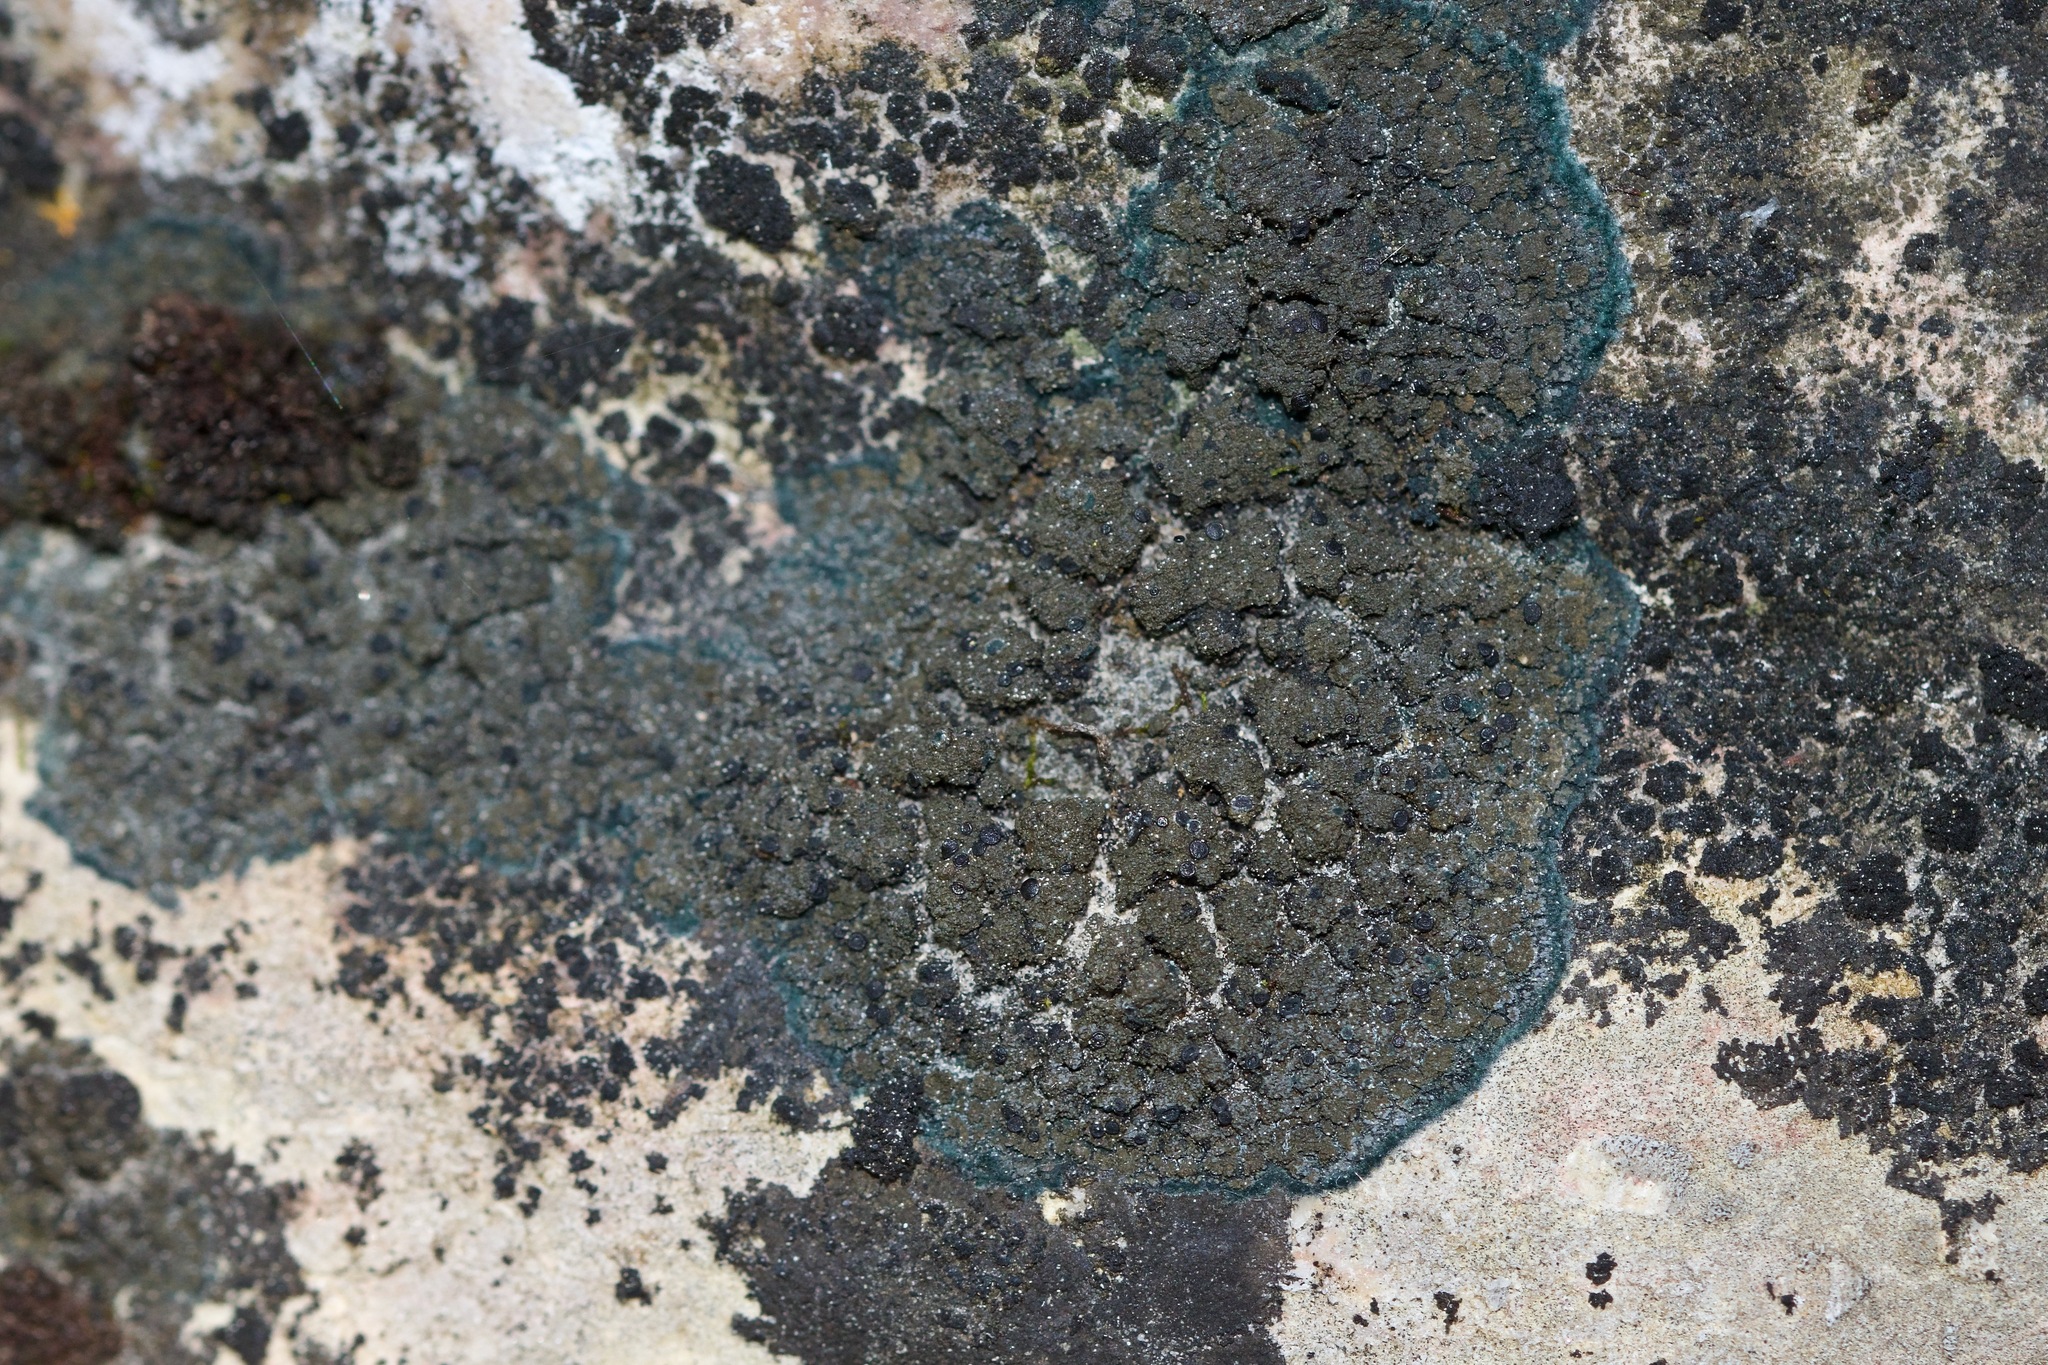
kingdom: Fungi
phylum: Ascomycota
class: Lecanoromycetes
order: Peltigerales
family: Placynthiaceae
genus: Placynthium
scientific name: Placynthium nigrum
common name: Blackthread lichen
